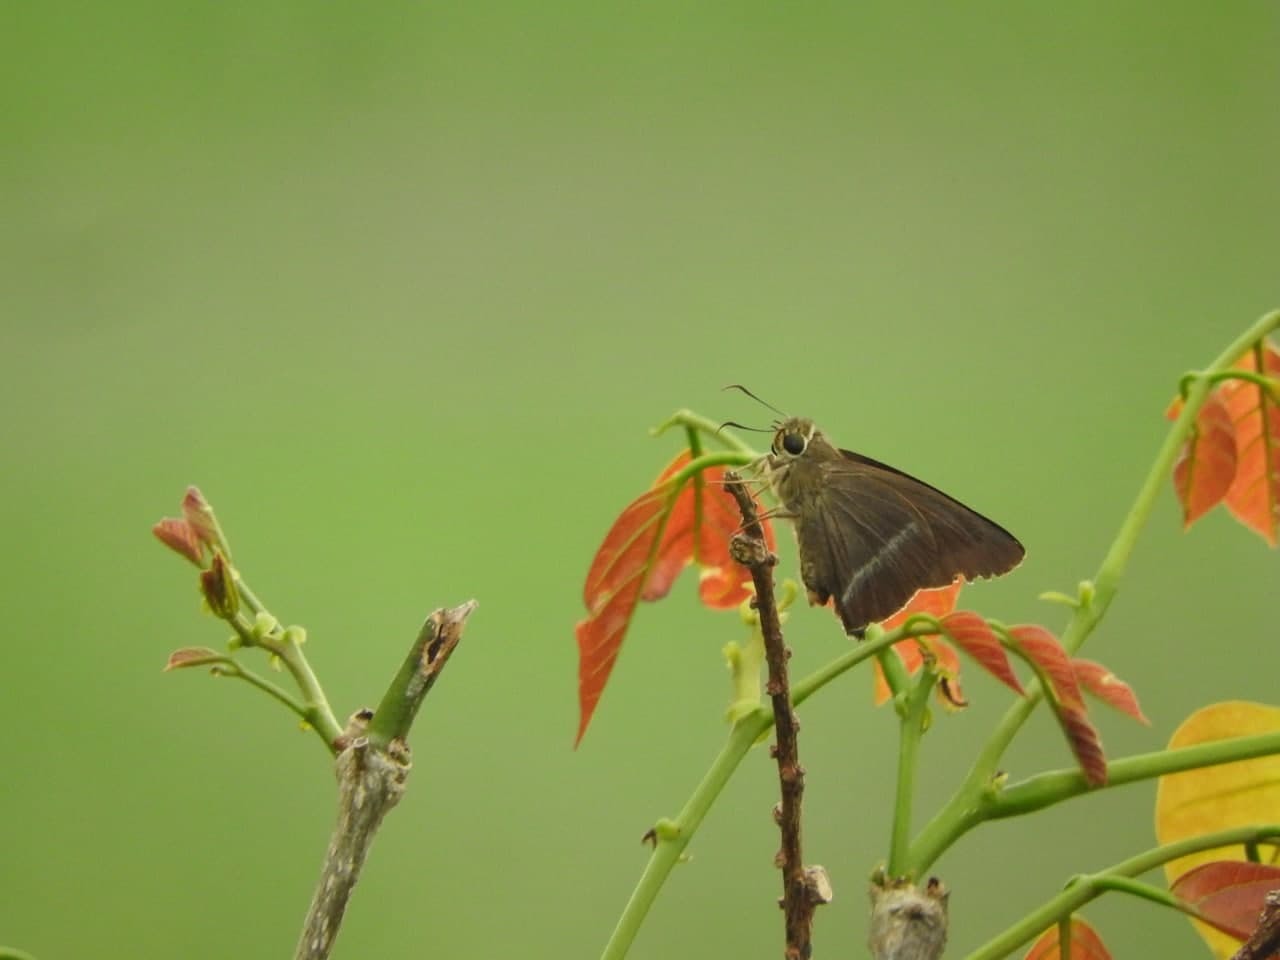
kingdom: Animalia
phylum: Arthropoda
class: Insecta
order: Lepidoptera
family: Hesperiidae
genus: Hasora
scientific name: Hasora chromus
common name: Common banded awl
